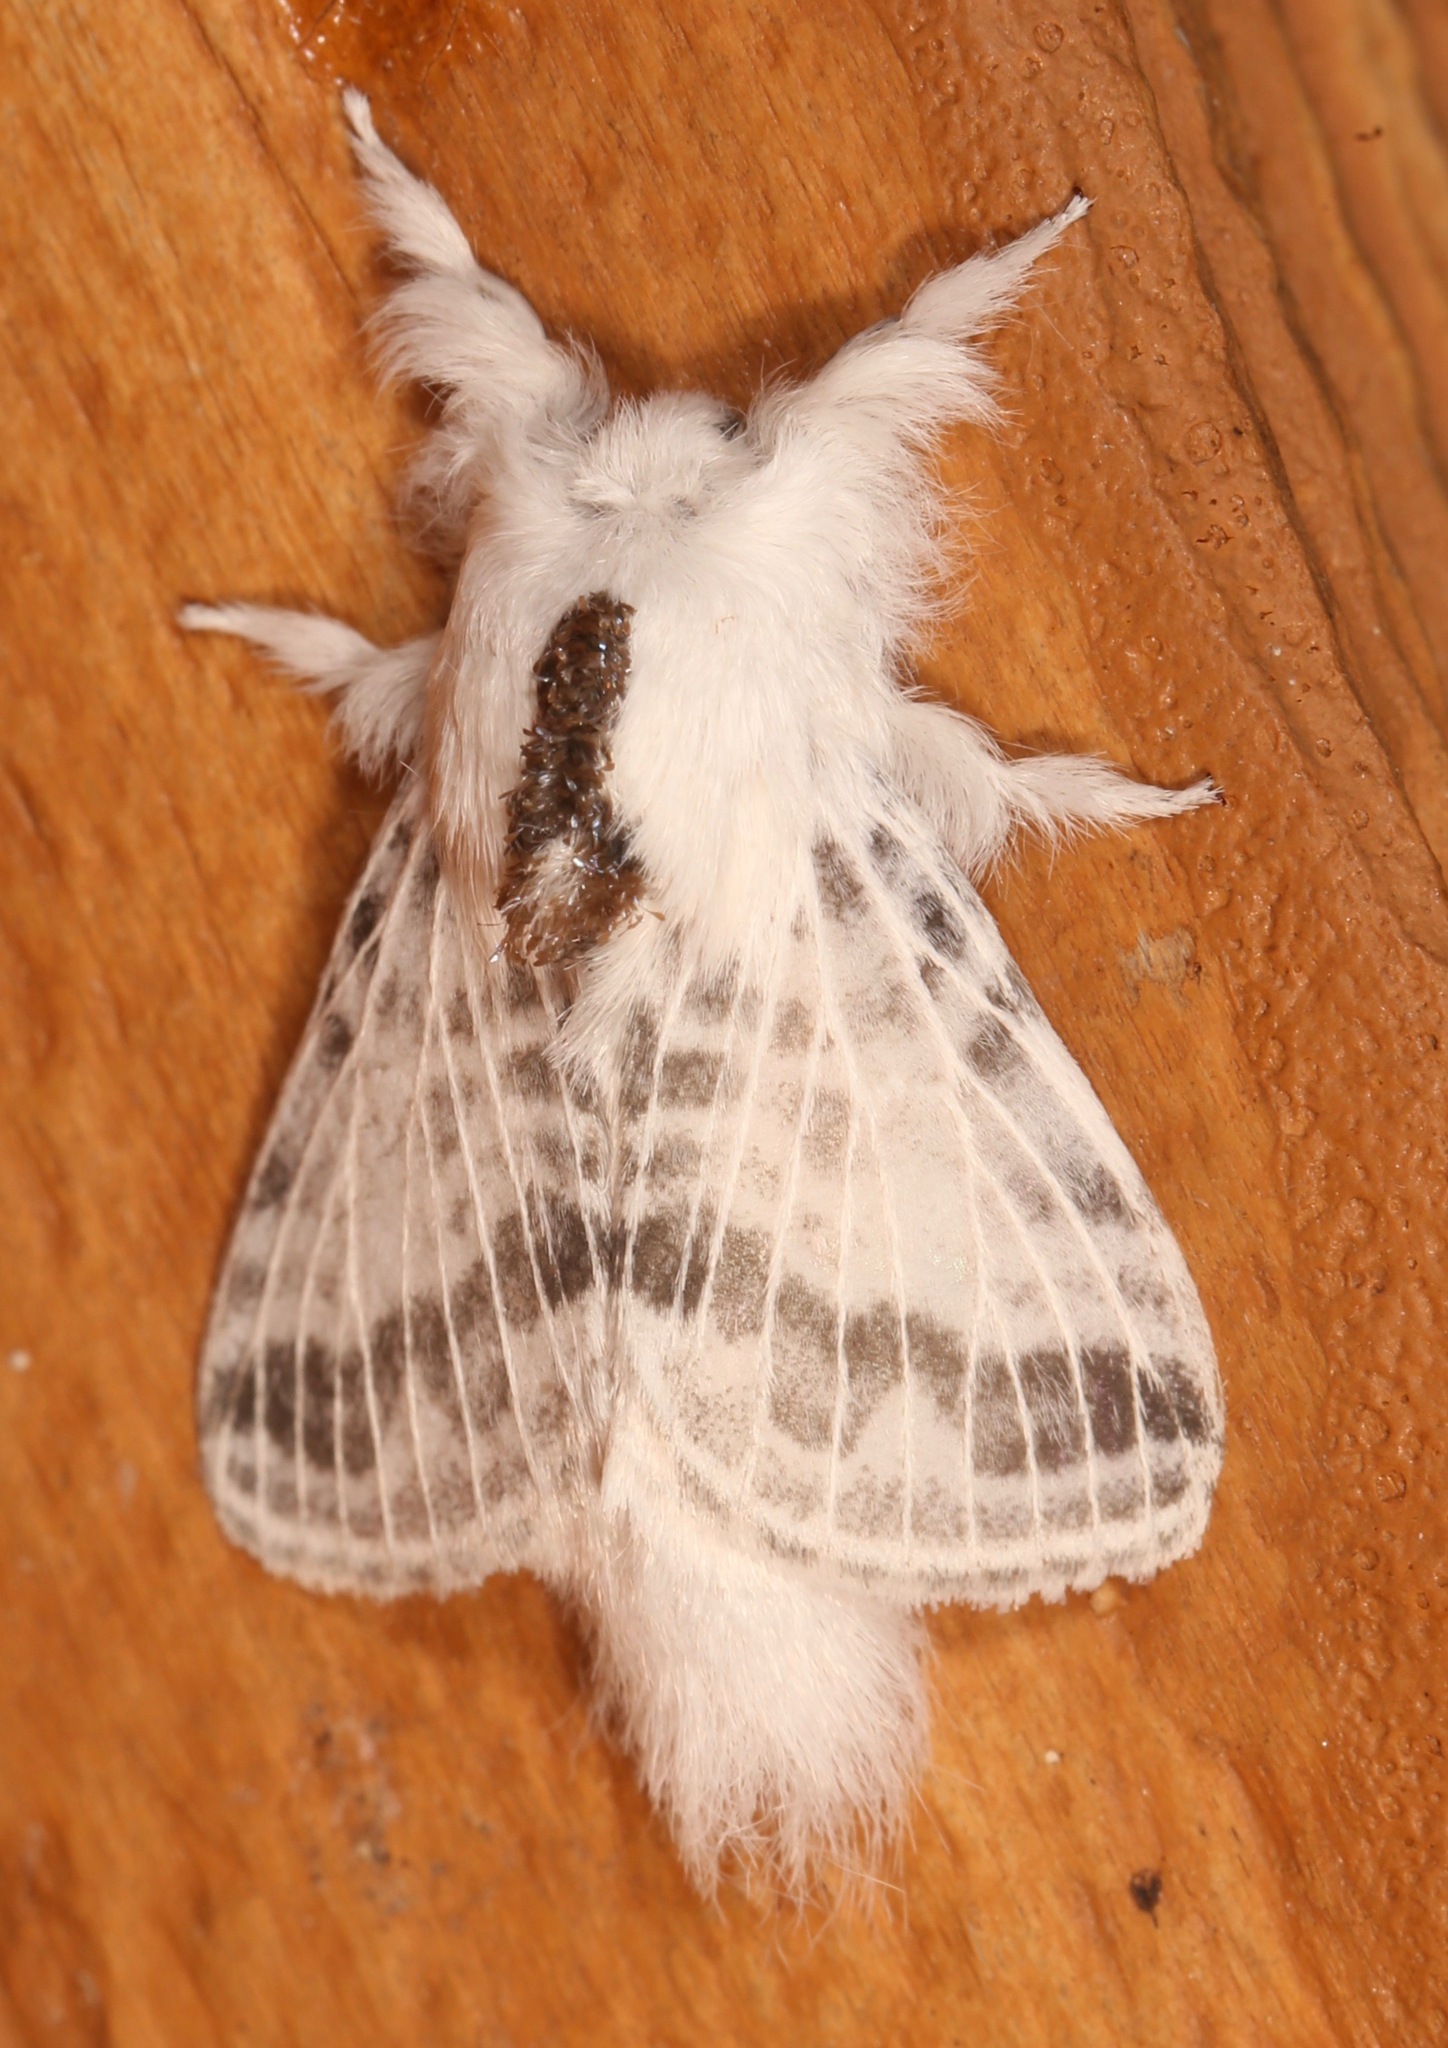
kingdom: Animalia
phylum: Arthropoda
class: Insecta
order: Lepidoptera
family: Lasiocampidae
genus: Tolype
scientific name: Tolype minta
